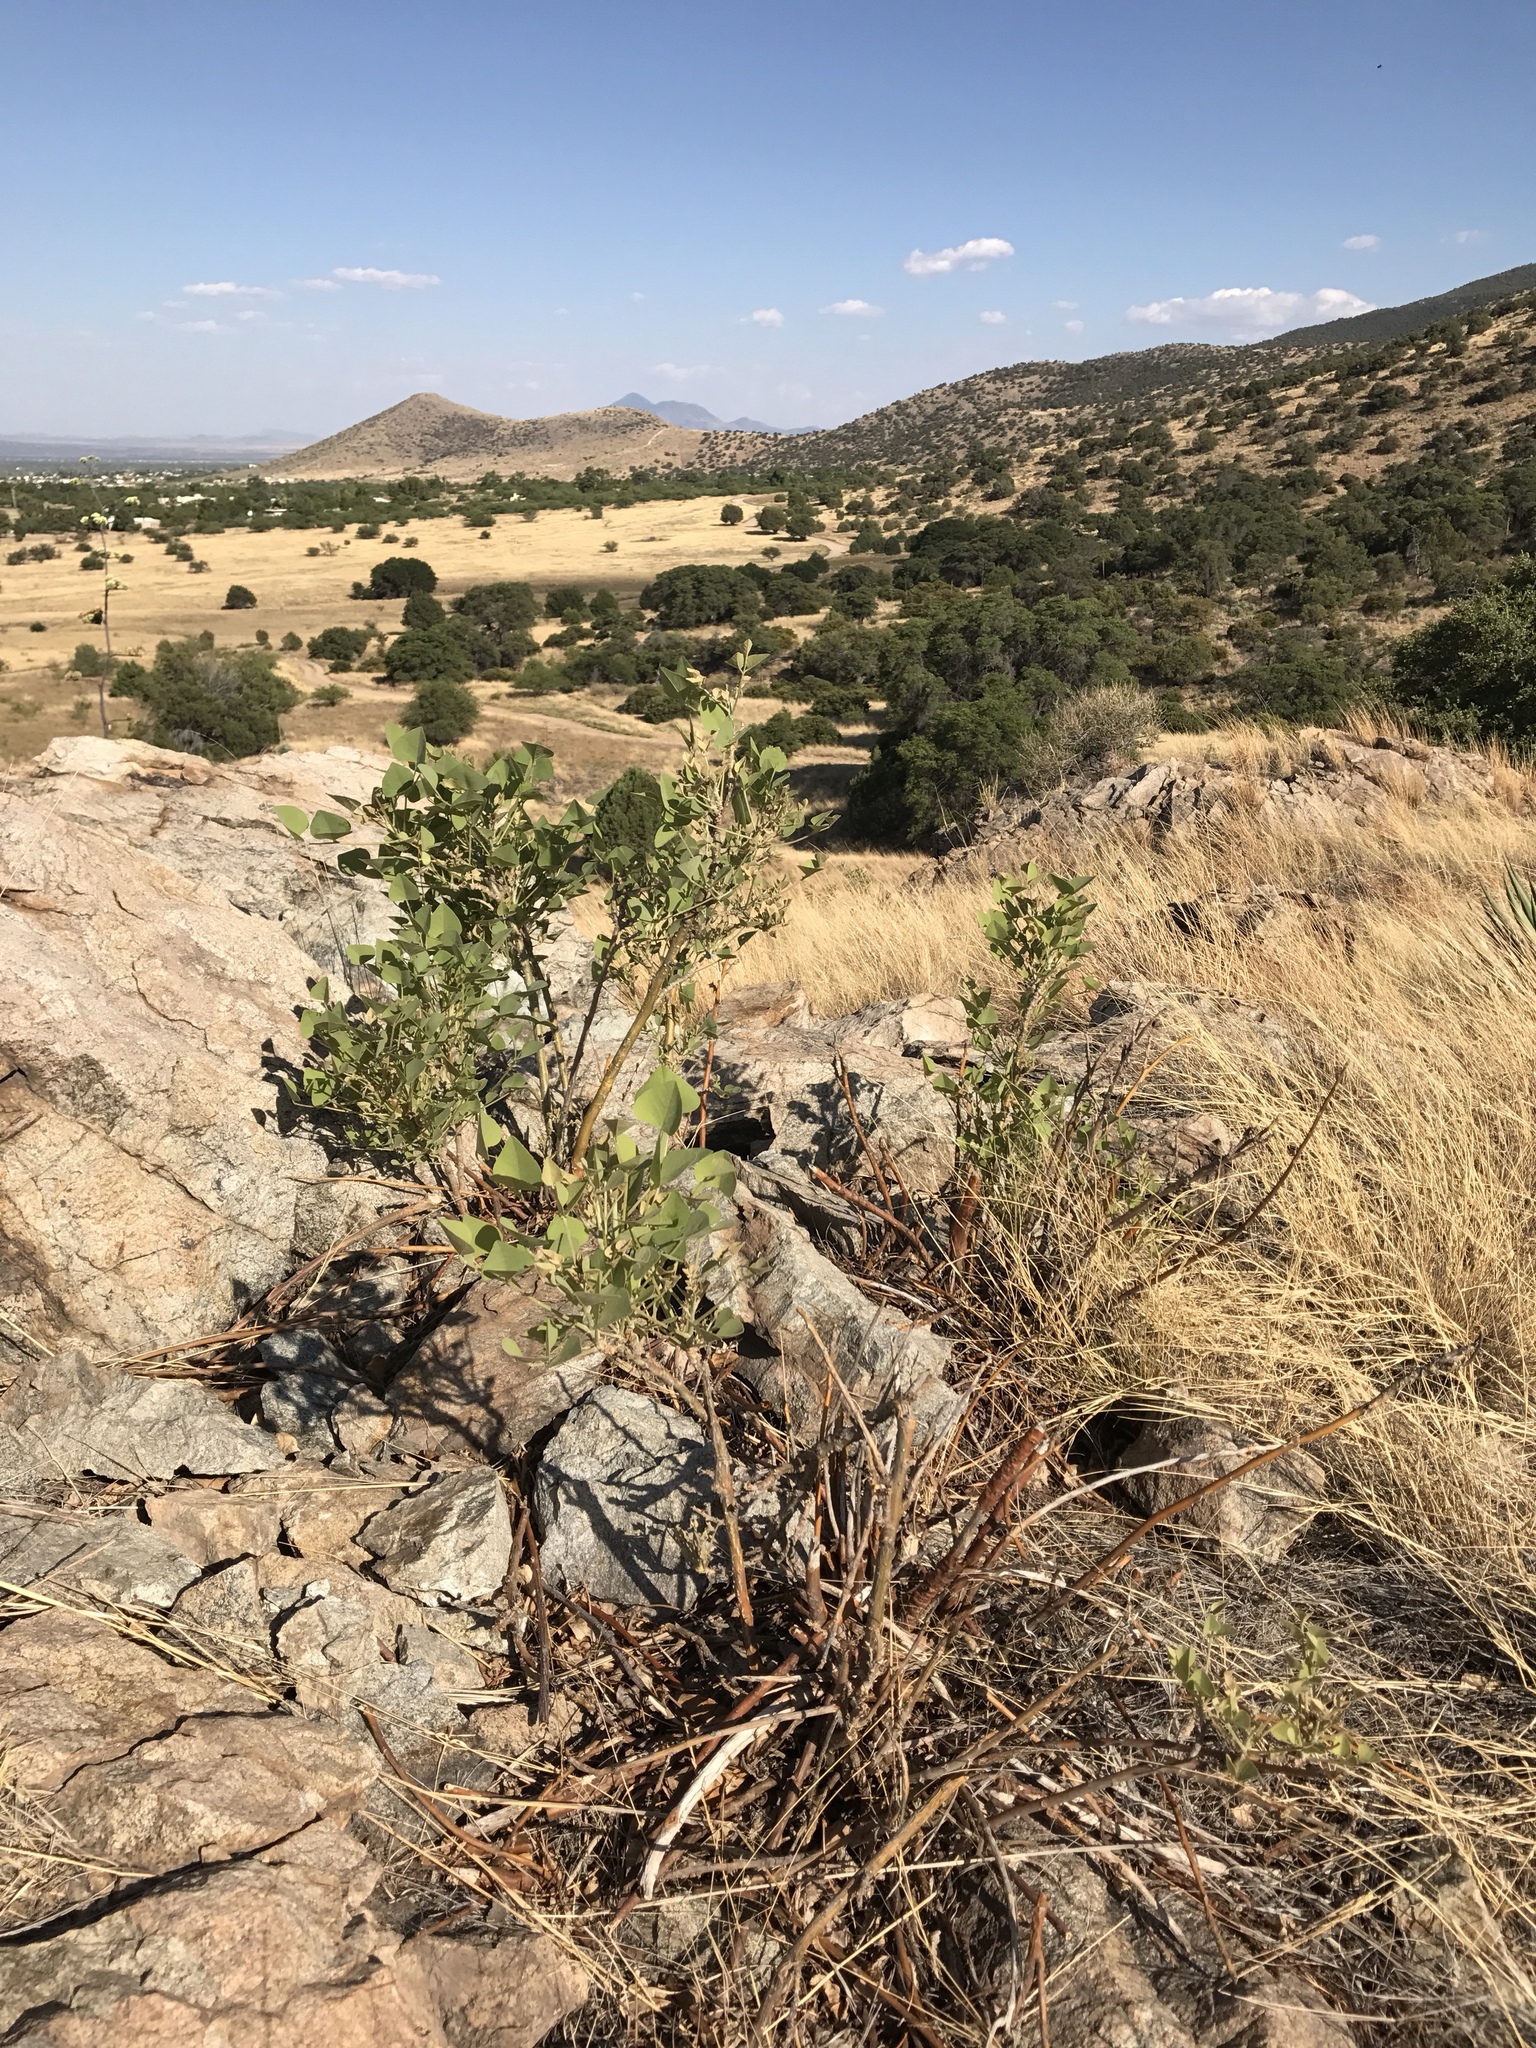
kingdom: Plantae
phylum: Tracheophyta
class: Magnoliopsida
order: Fabales
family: Fabaceae
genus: Erythrina
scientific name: Erythrina flabelliformis
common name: Chilicote
